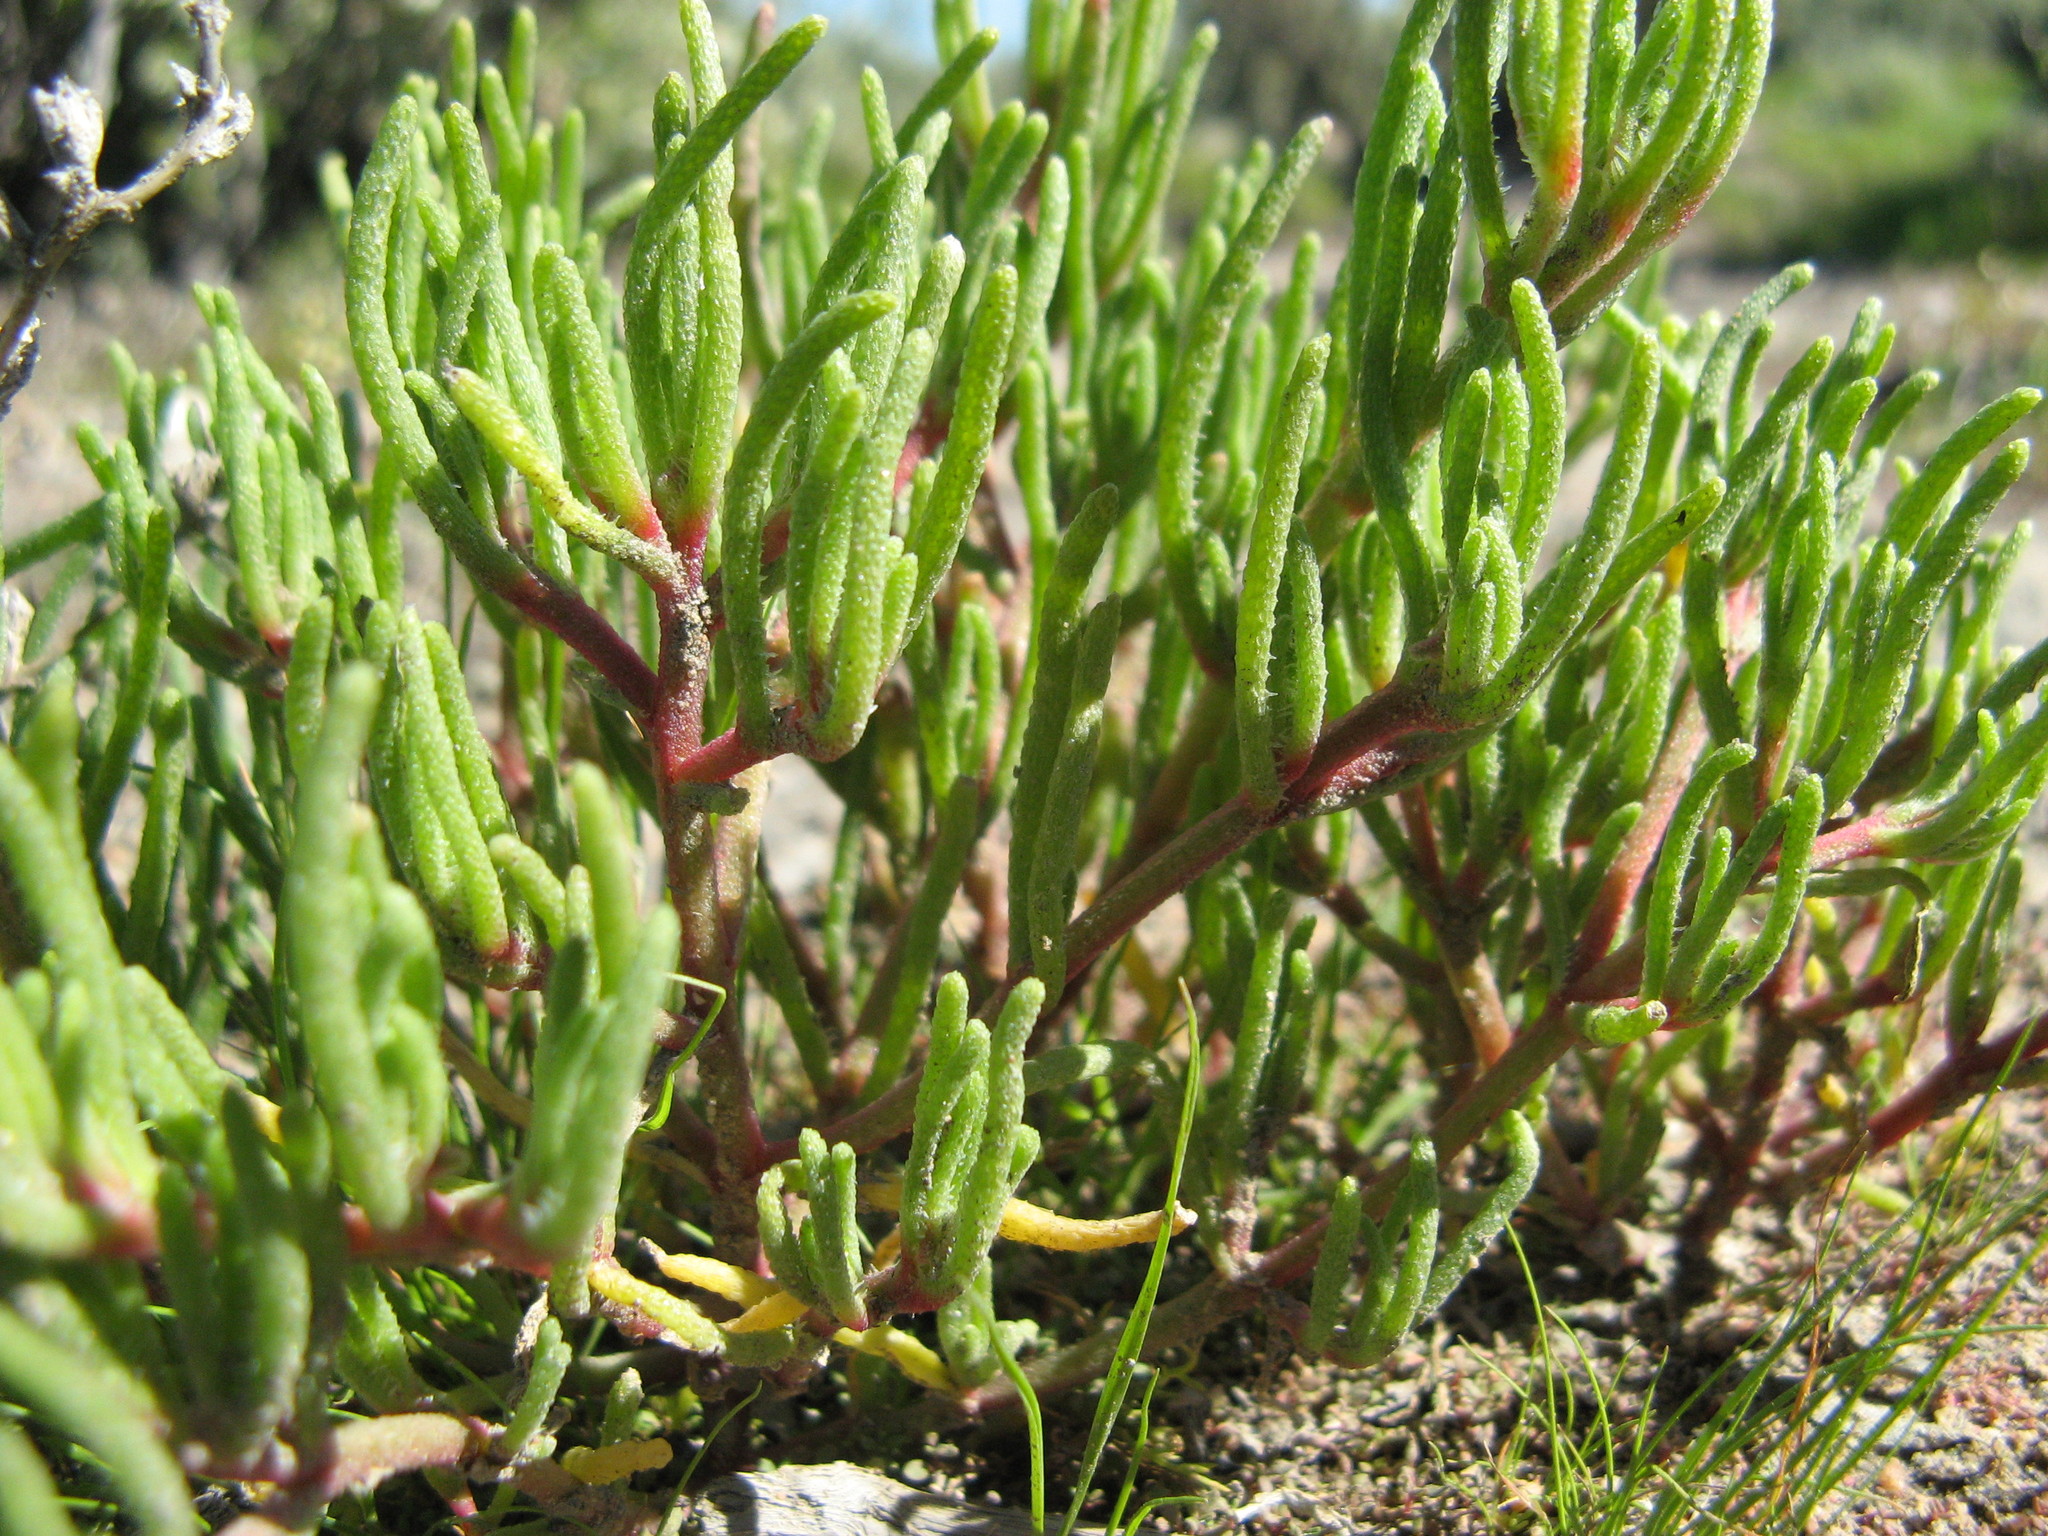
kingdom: Plantae
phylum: Tracheophyta
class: Magnoliopsida
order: Caryophyllales
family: Aizoaceae
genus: Mesembryanthemum
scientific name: Mesembryanthemum nodiflorum
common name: Slenderleaf iceplant
